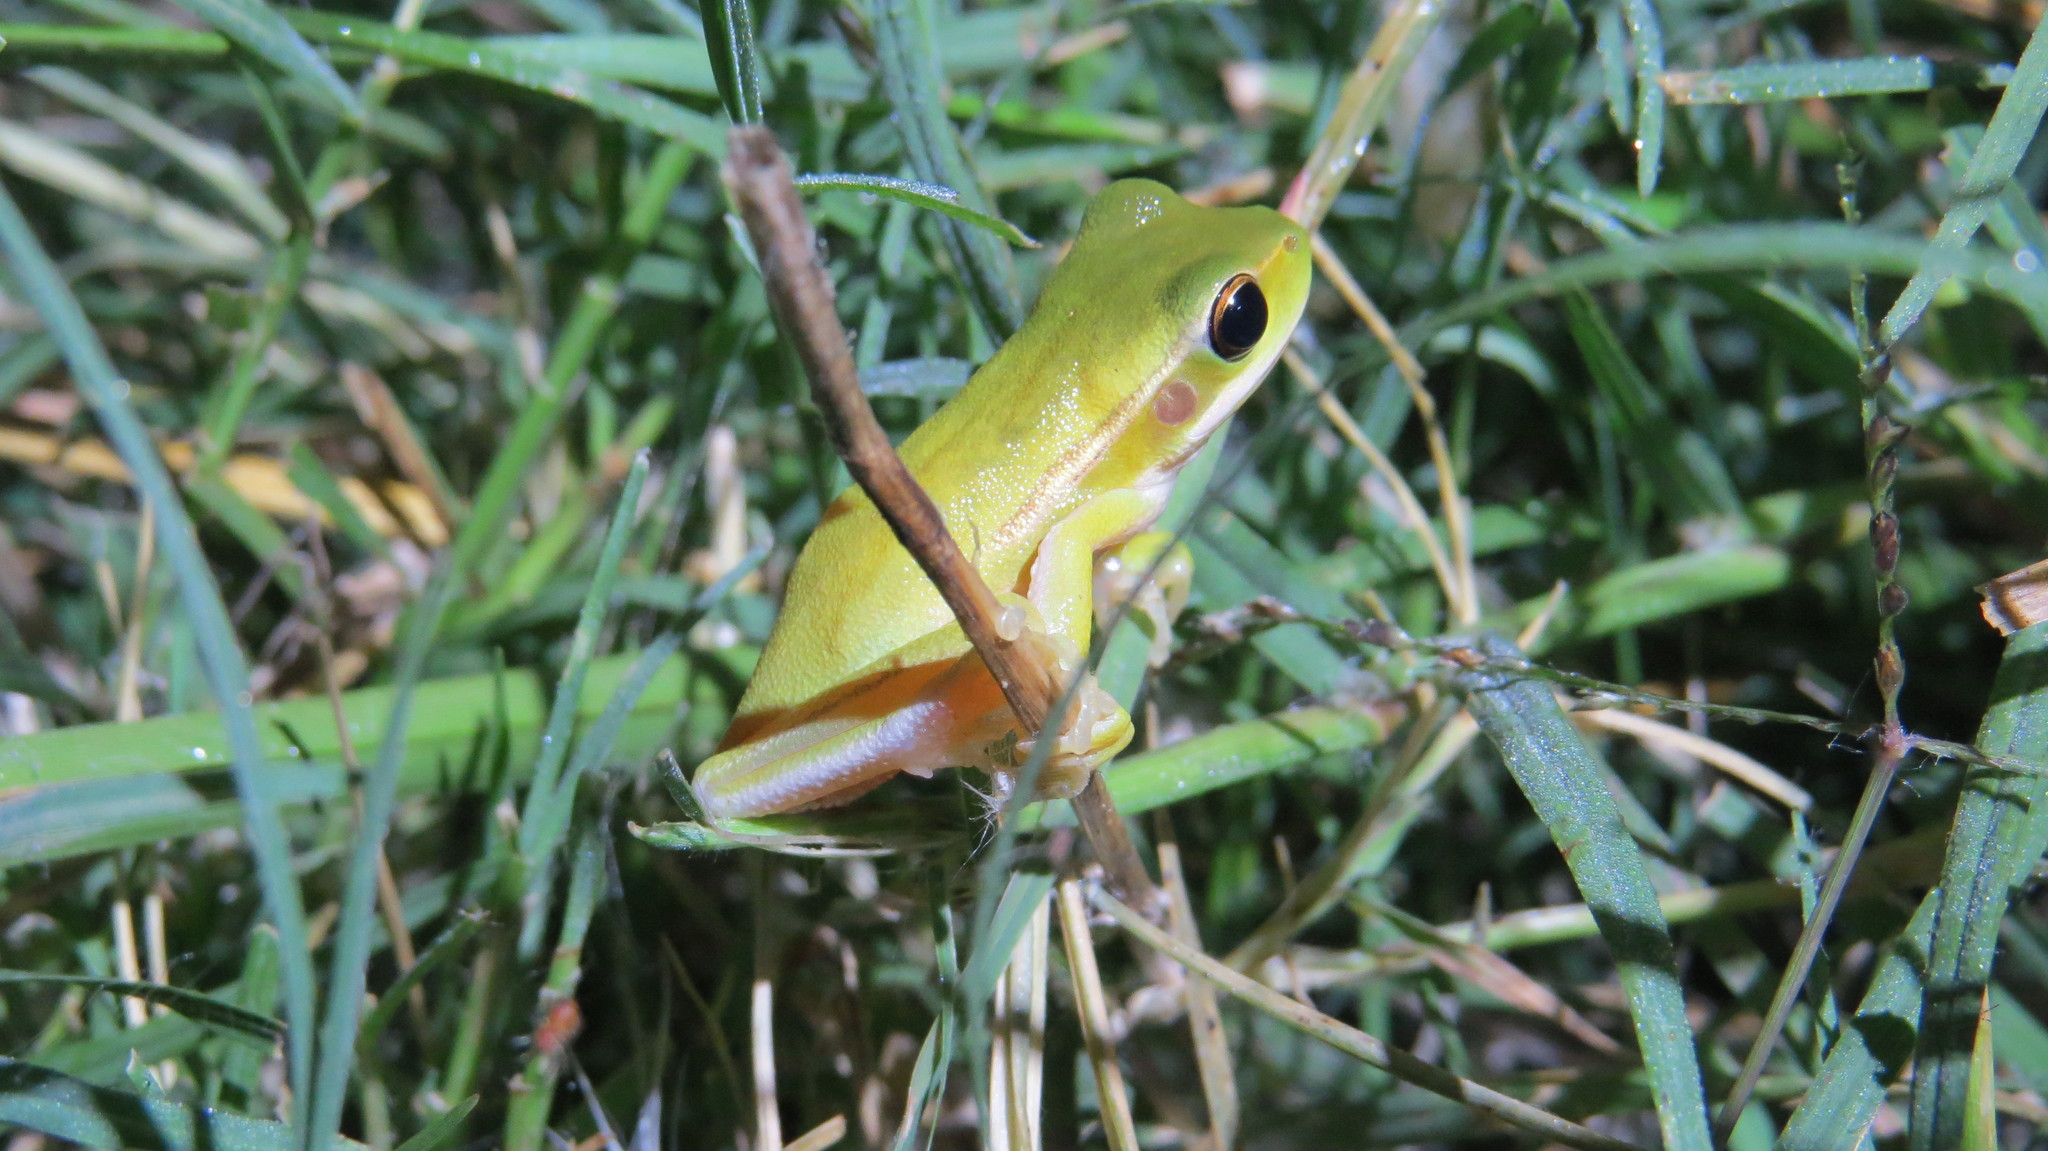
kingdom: Animalia
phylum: Chordata
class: Amphibia
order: Anura
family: Hylidae
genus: Boana
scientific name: Boana pulchella
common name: Montevideo treefrog
